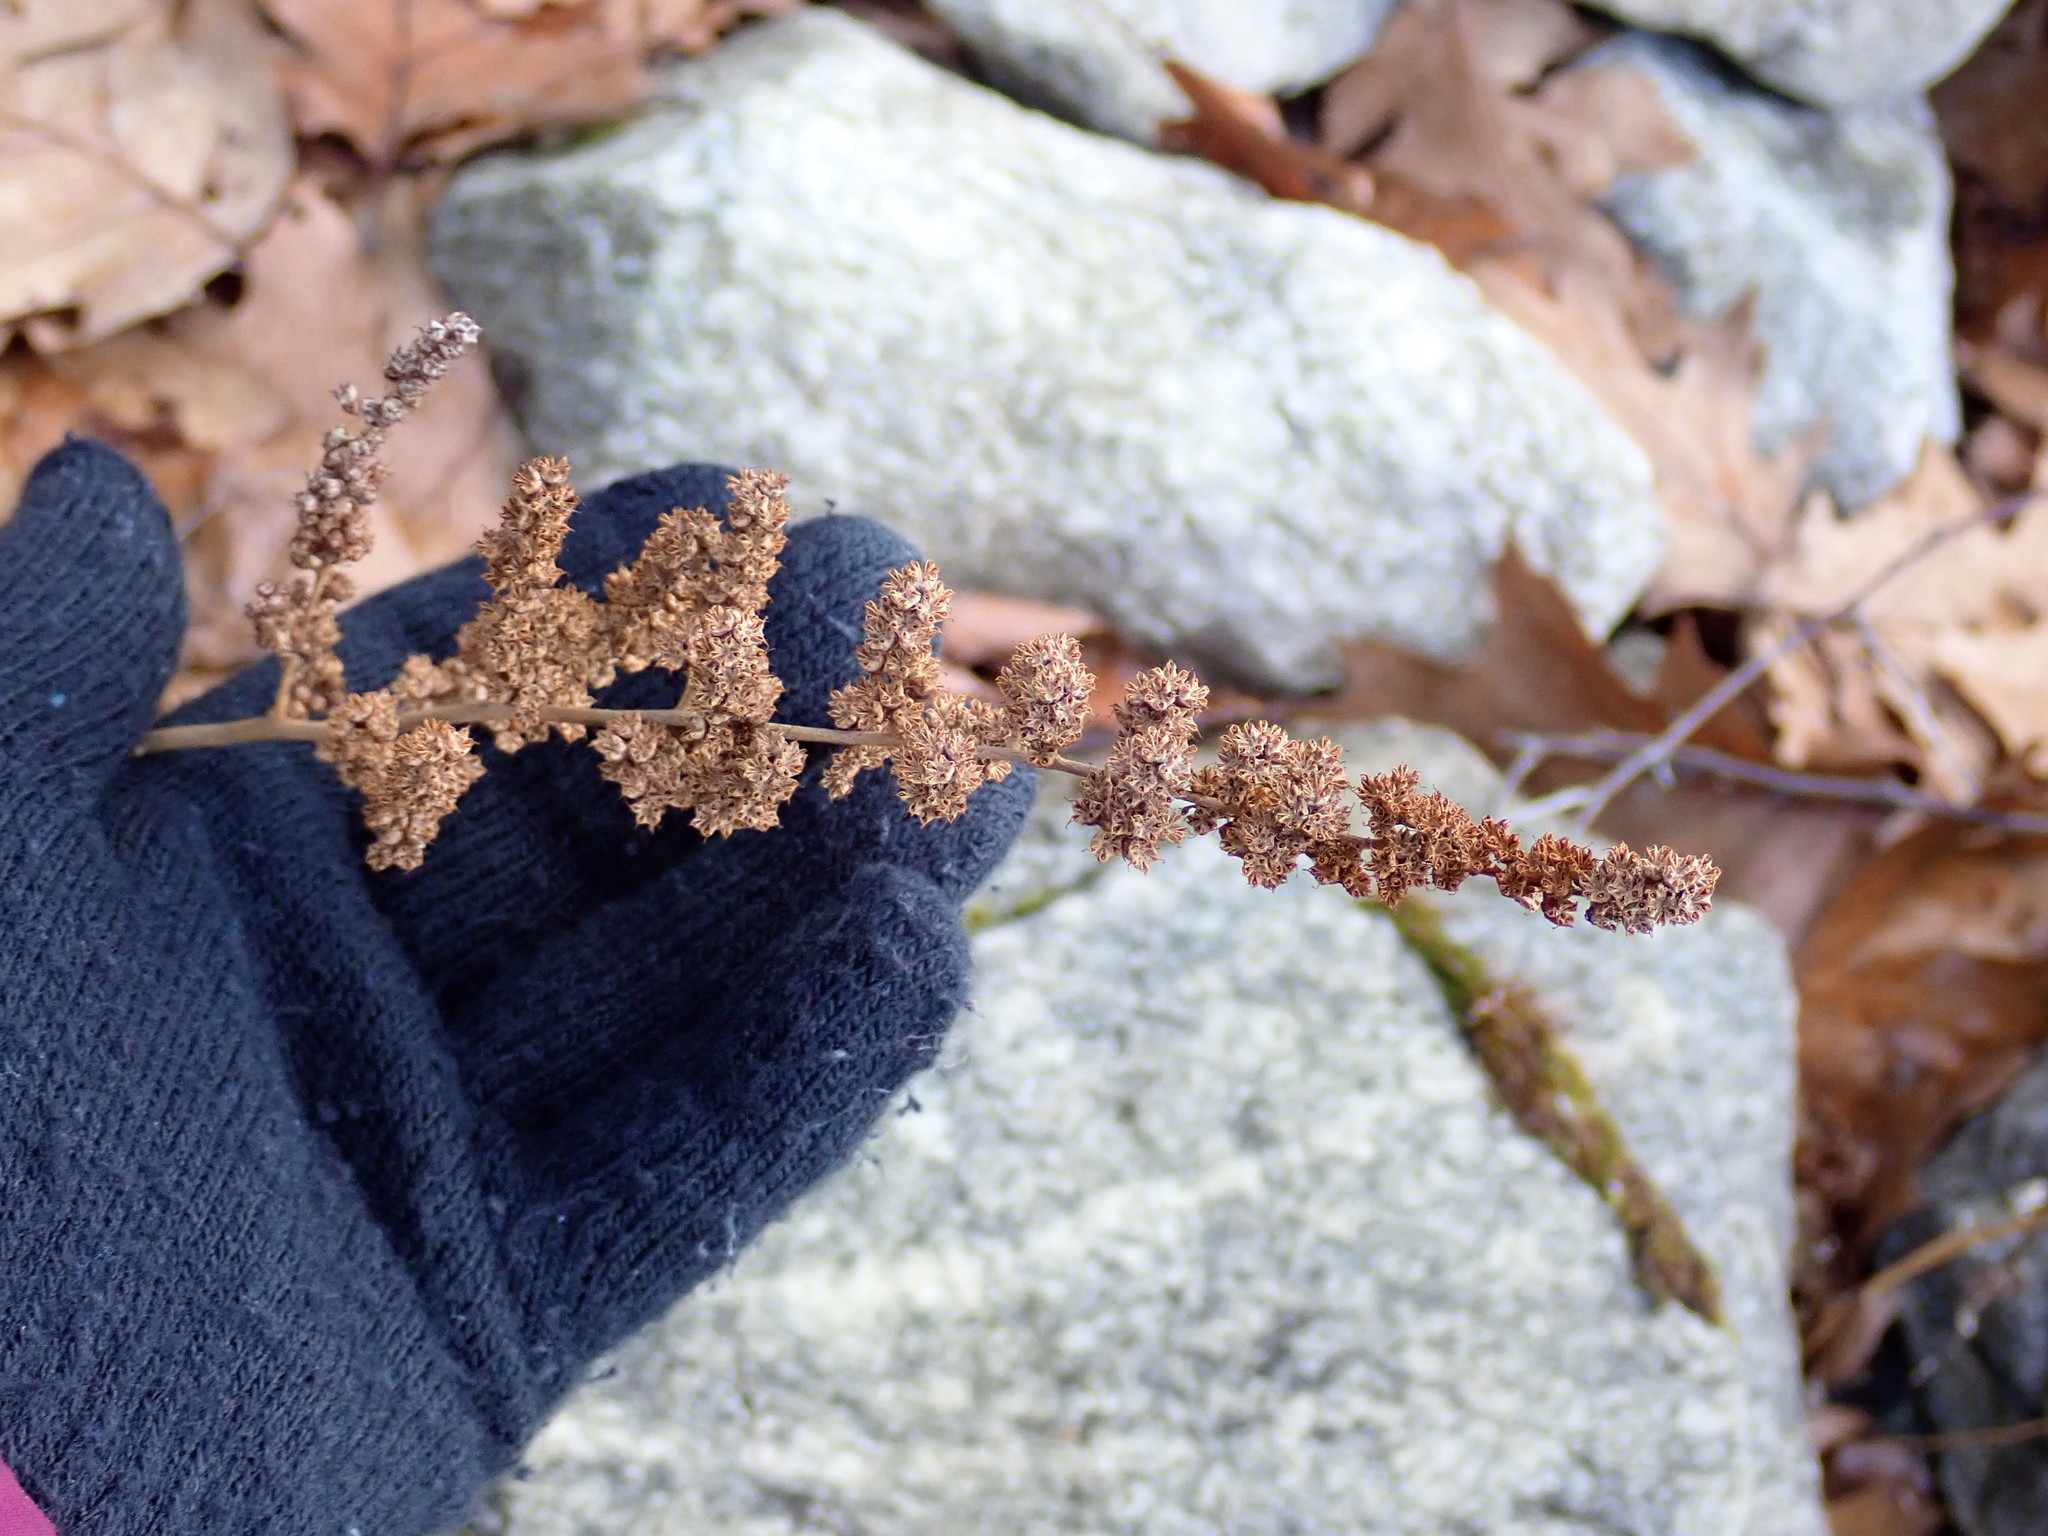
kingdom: Plantae
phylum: Tracheophyta
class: Magnoliopsida
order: Rosales
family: Rosaceae
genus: Spiraea
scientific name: Spiraea tomentosa
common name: Hardhack
